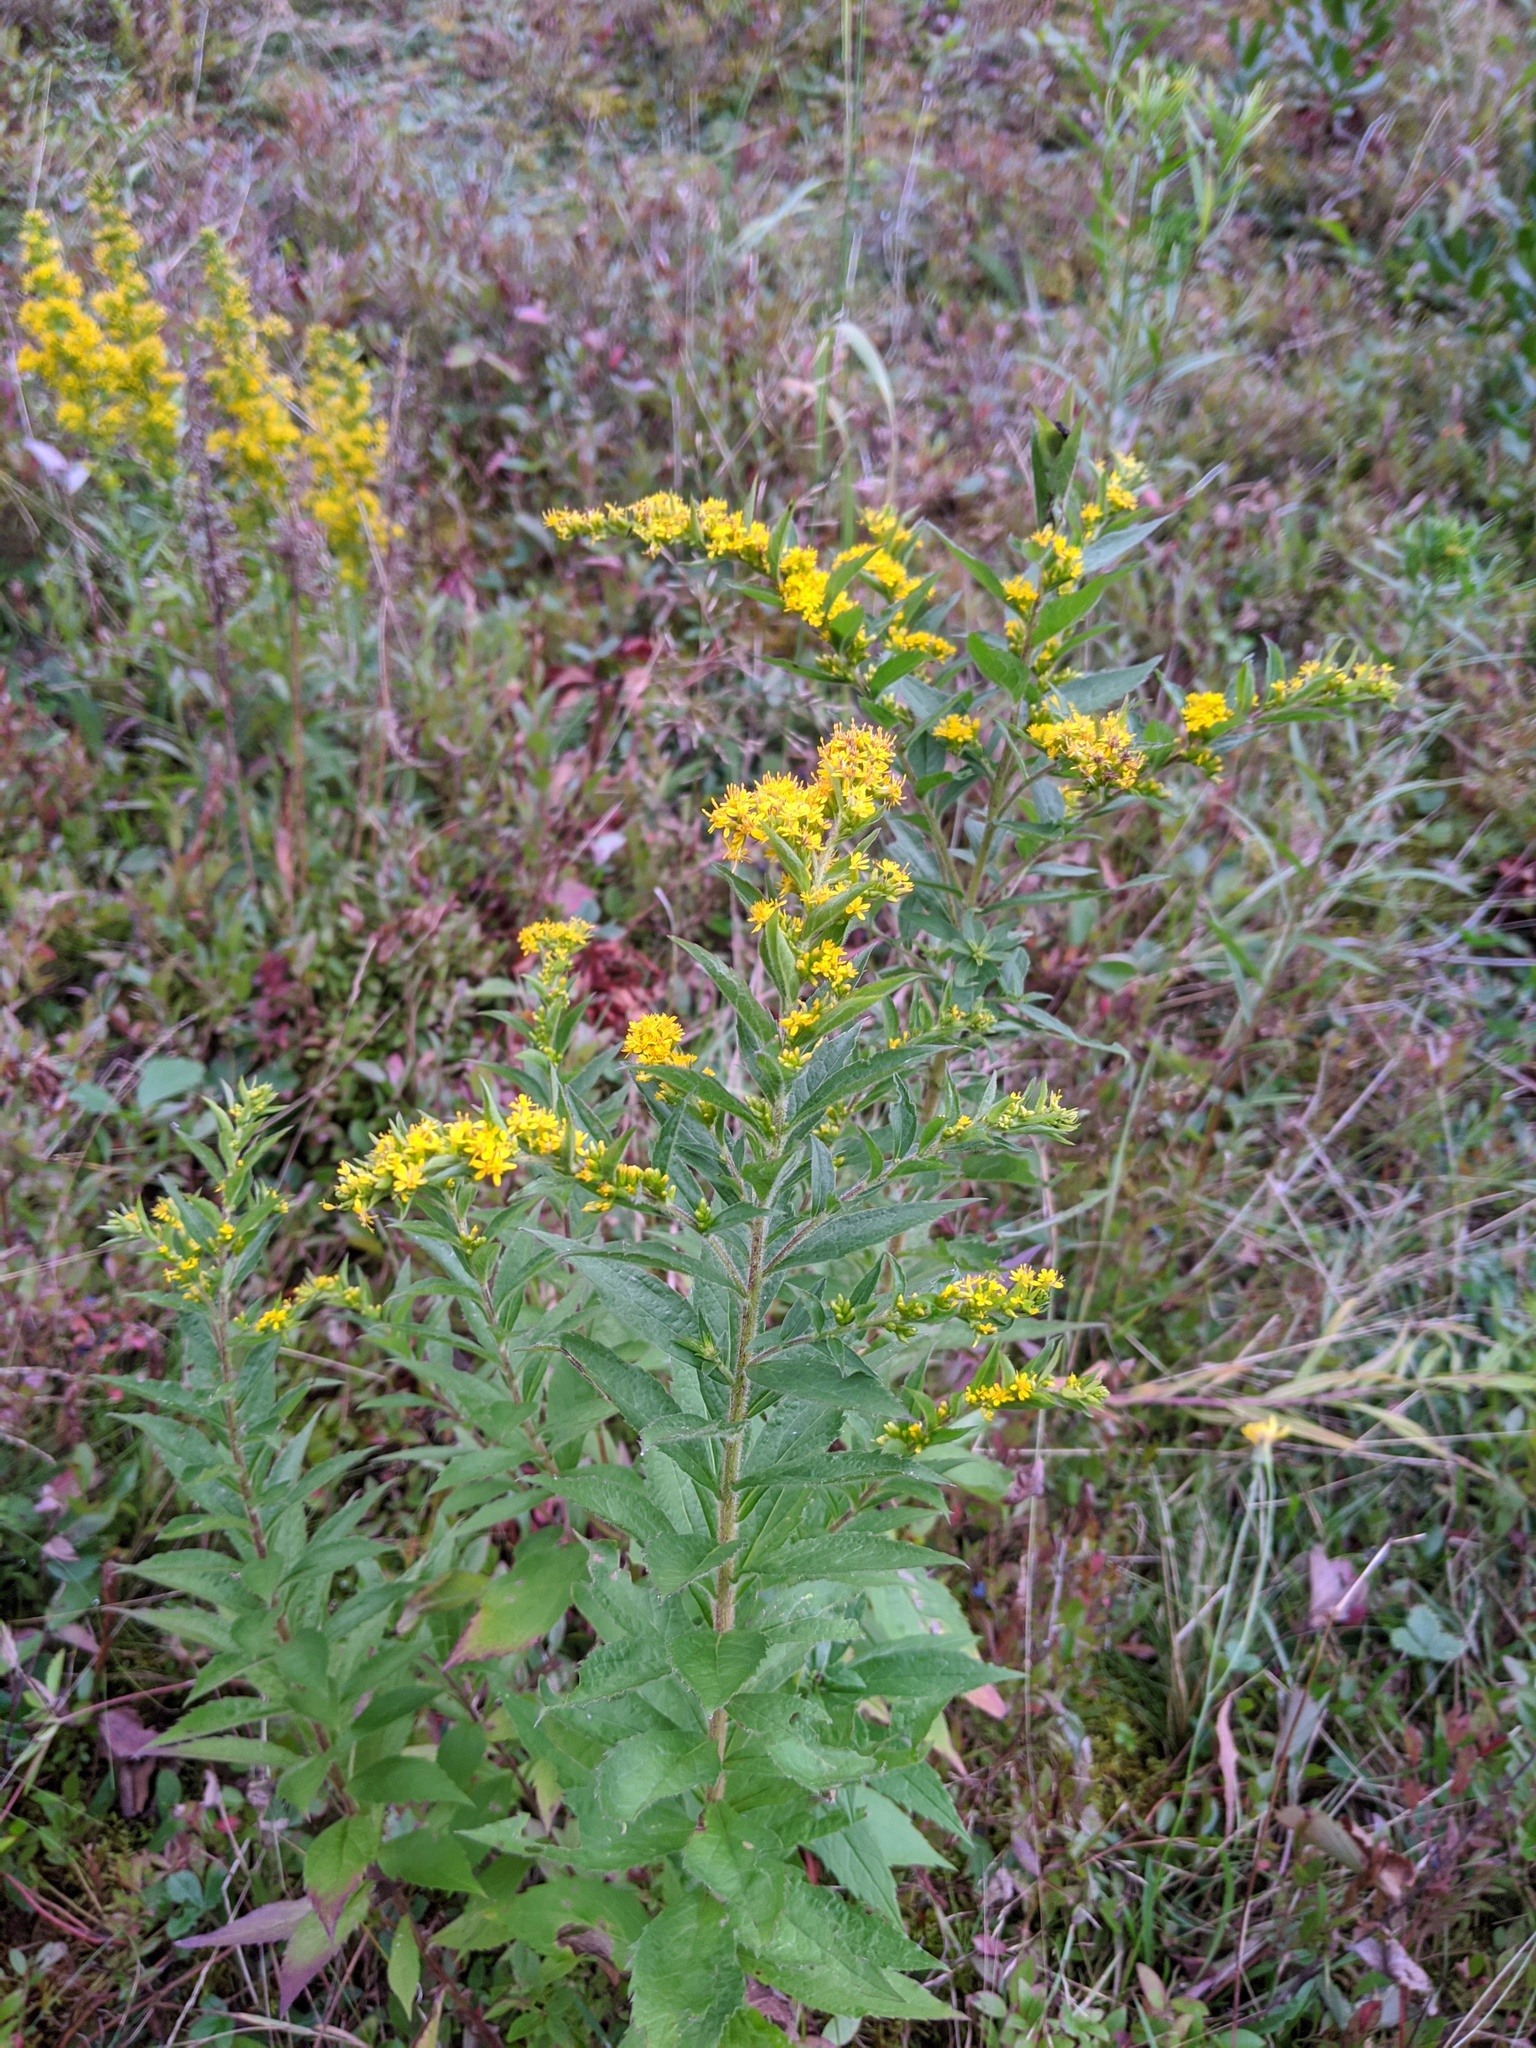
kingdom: Plantae
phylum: Tracheophyta
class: Magnoliopsida
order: Asterales
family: Asteraceae
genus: Solidago
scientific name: Solidago rugosa
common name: Rough-stemmed goldenrod
